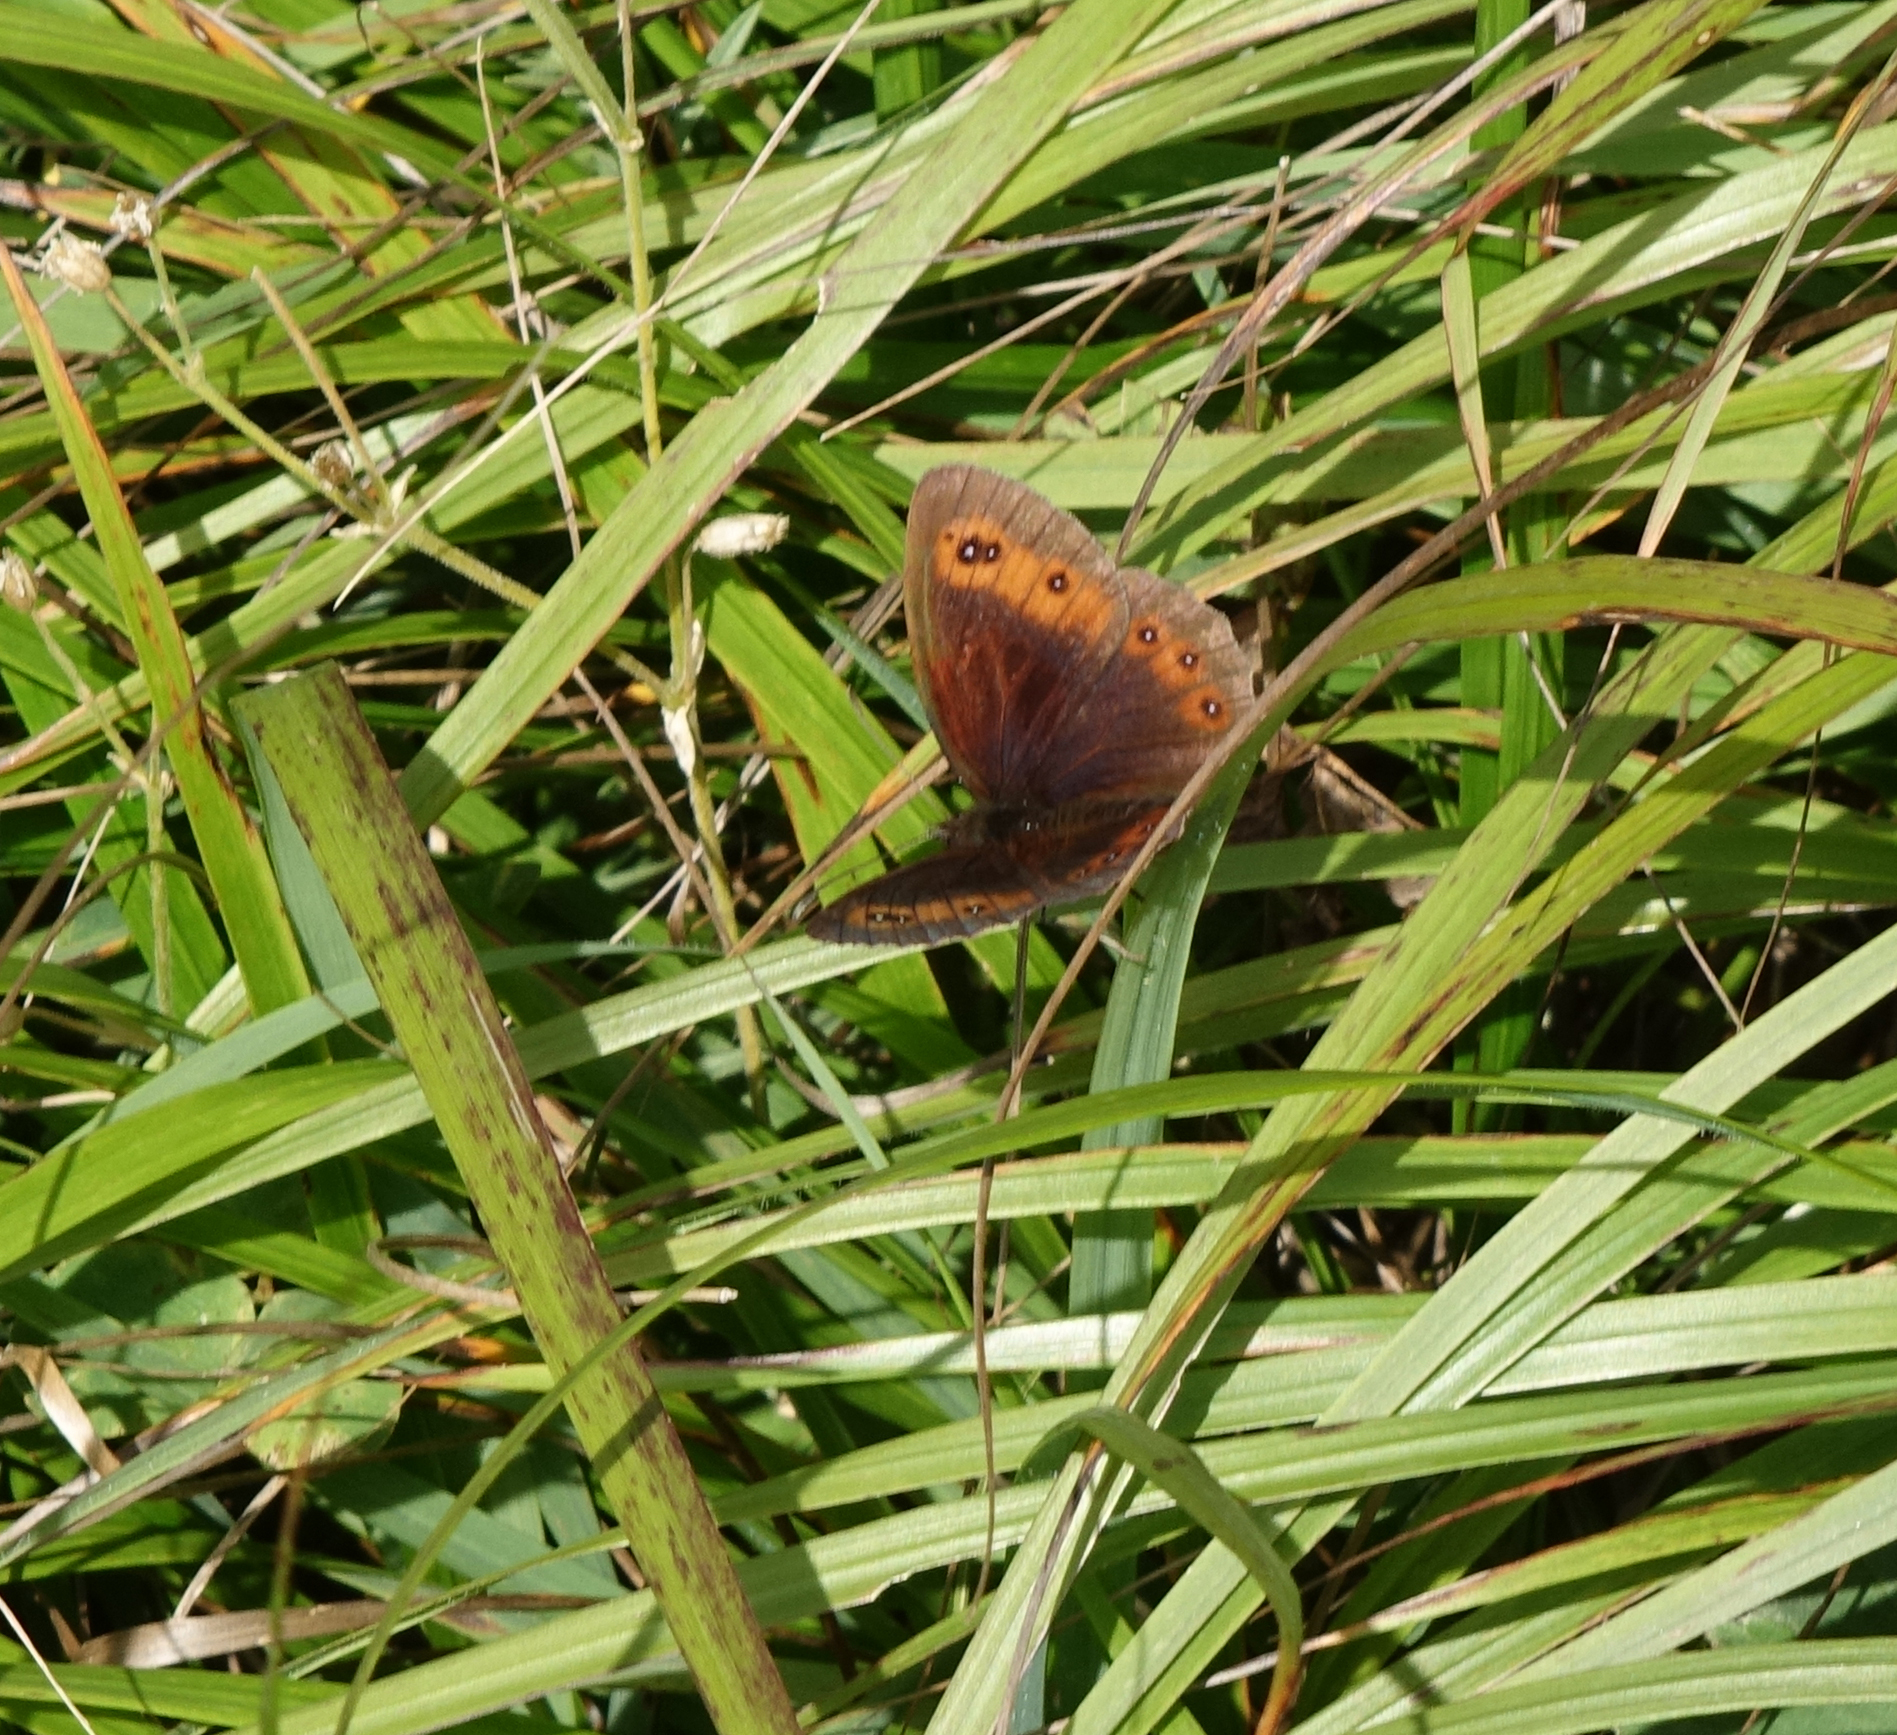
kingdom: Animalia
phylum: Arthropoda
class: Insecta
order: Lepidoptera
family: Nymphalidae
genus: Erebia
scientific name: Erebia aethiops
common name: Scotch argus
